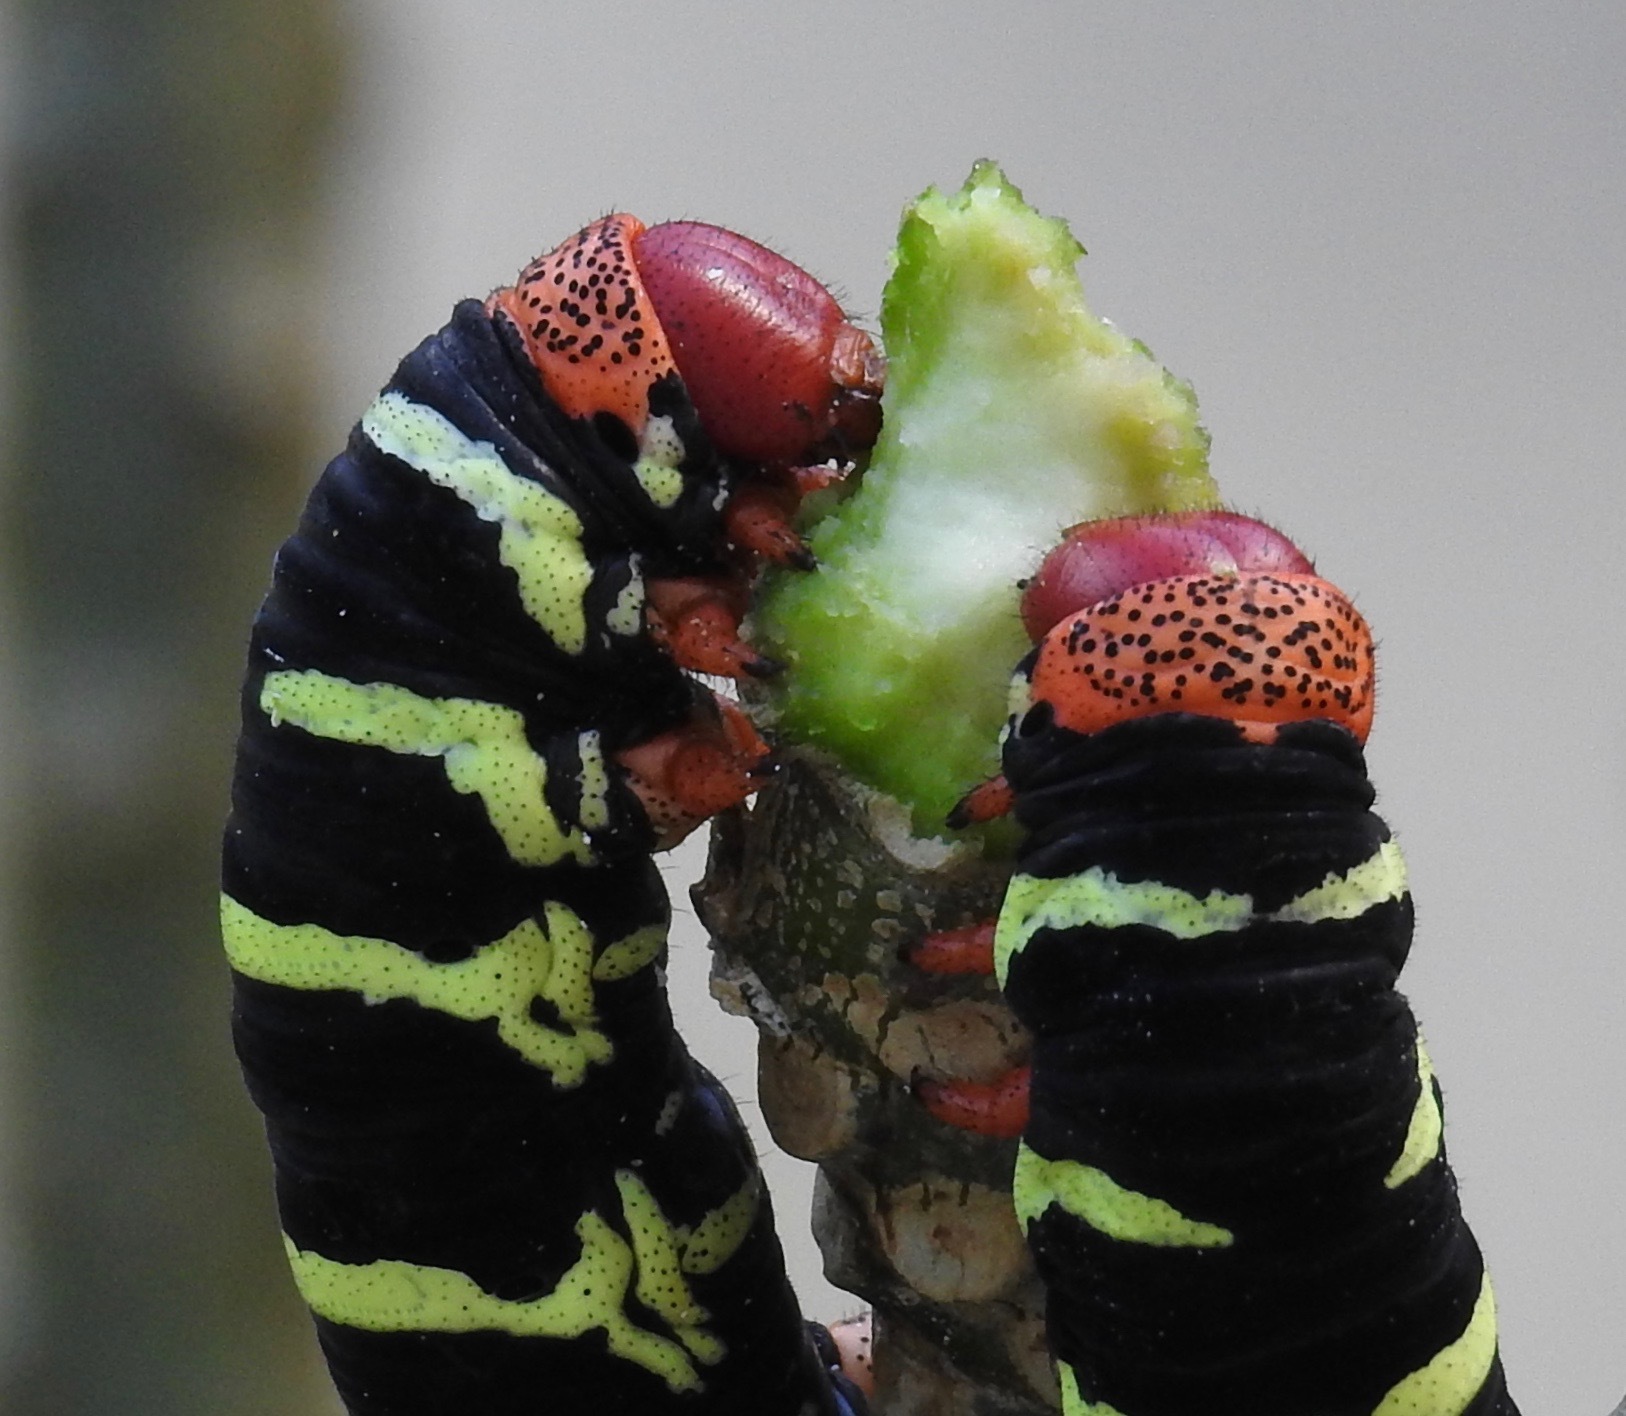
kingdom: Animalia
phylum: Arthropoda
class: Insecta
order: Lepidoptera
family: Sphingidae
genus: Pseudosphinx
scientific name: Pseudosphinx tetrio
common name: Tetrio sphinx
